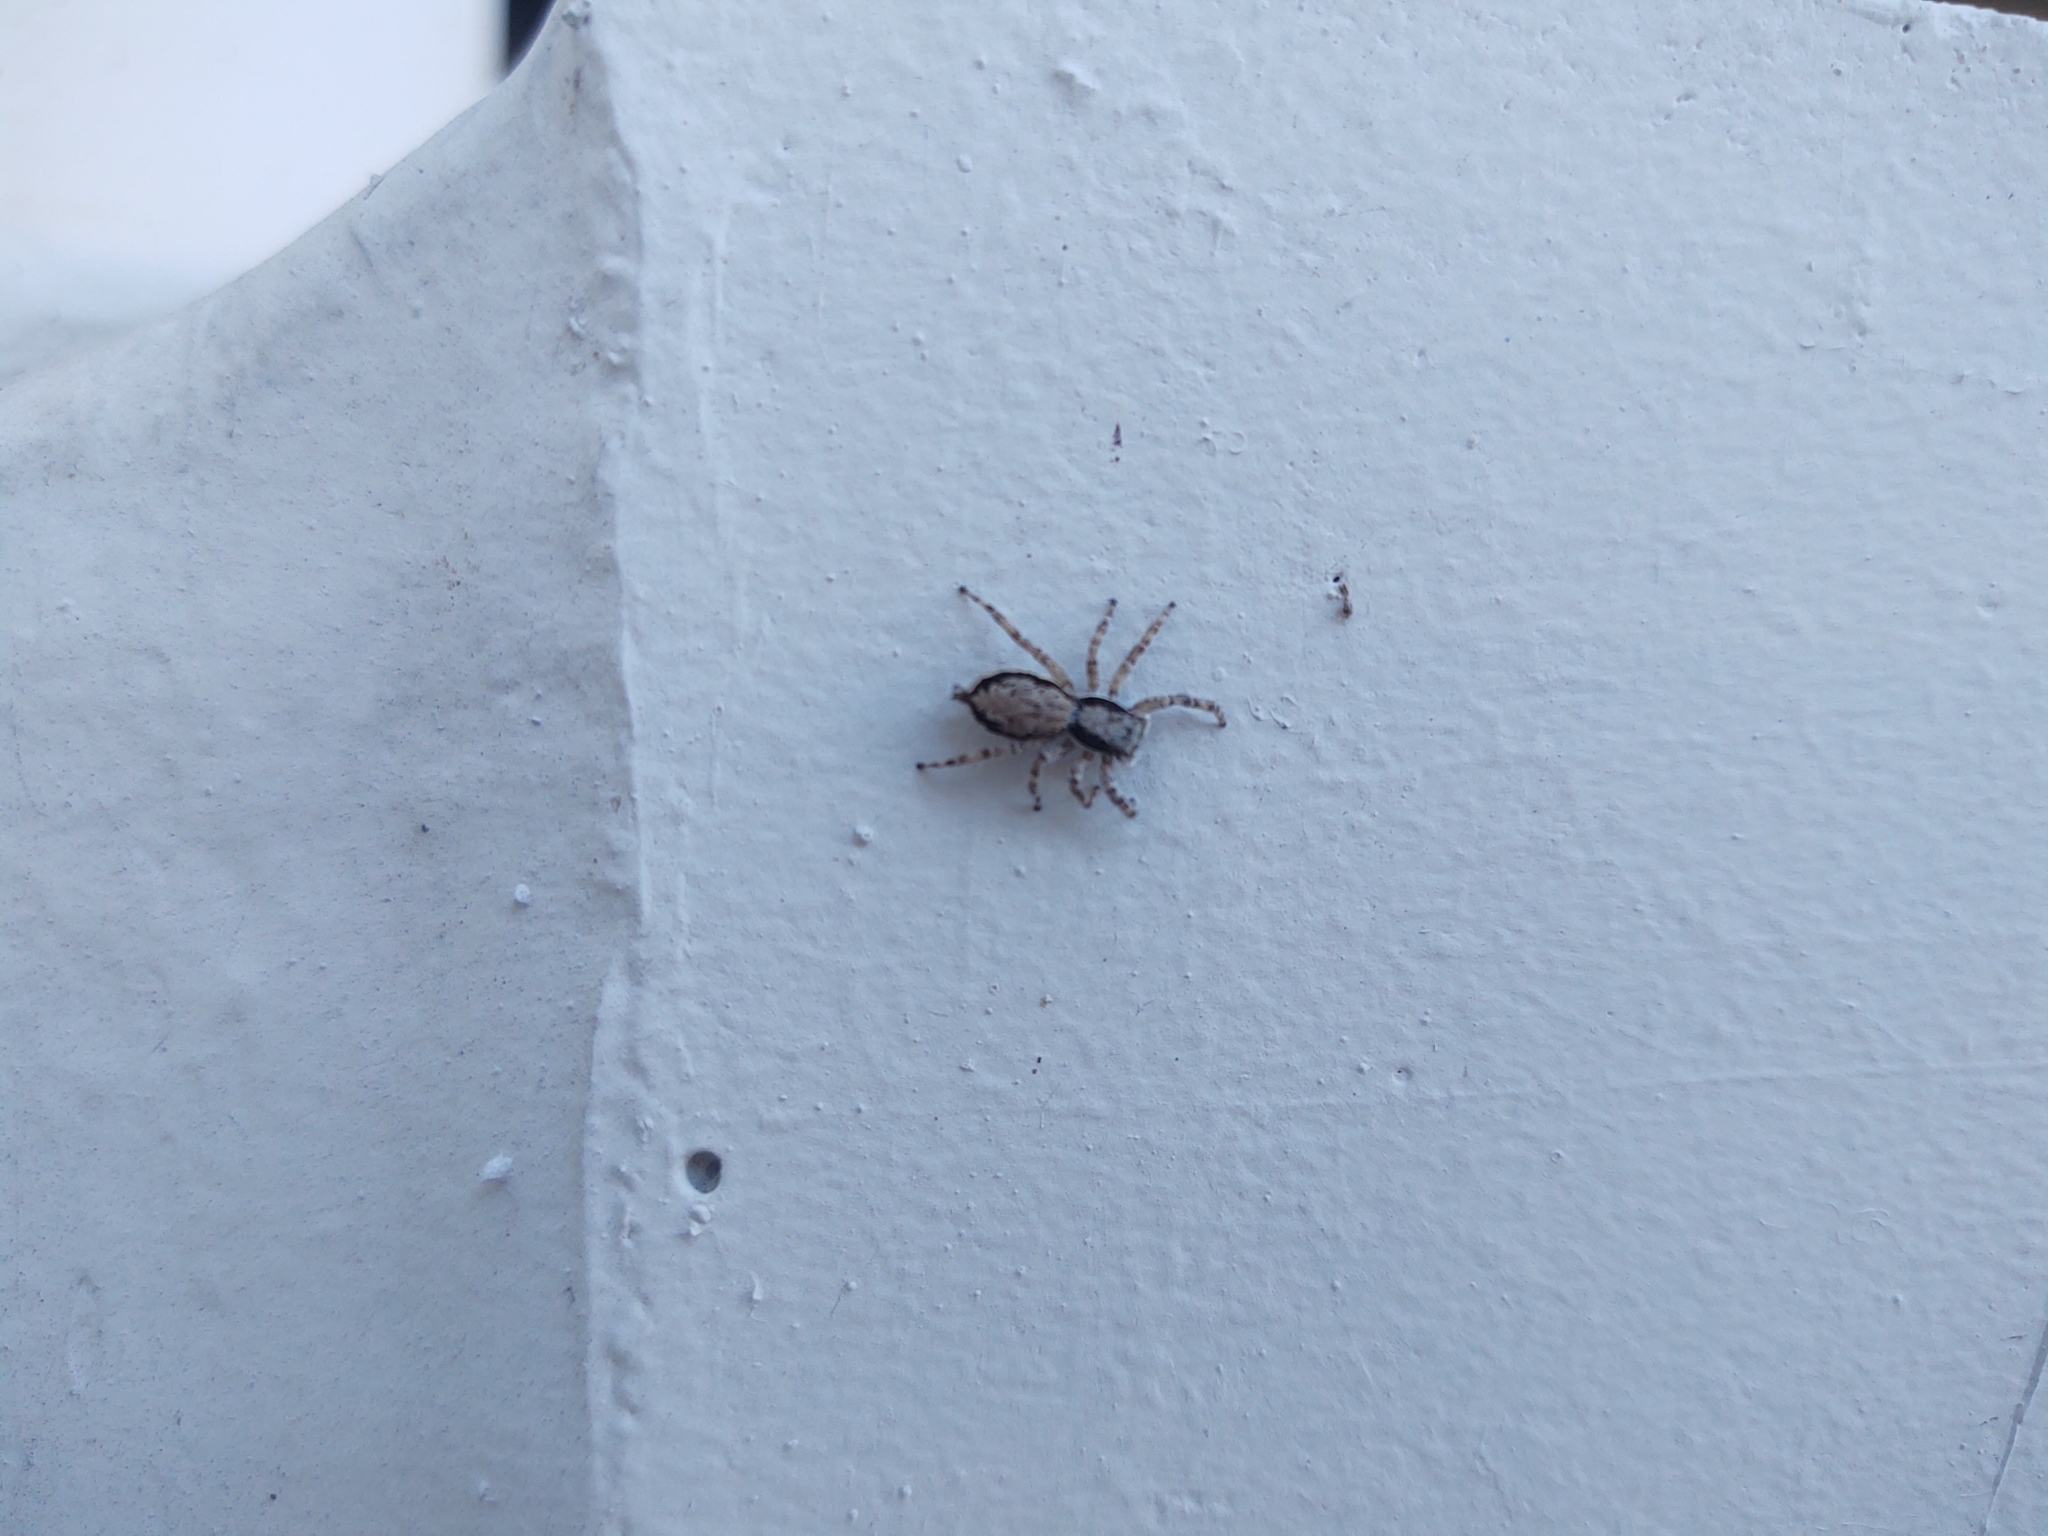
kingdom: Animalia
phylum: Arthropoda
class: Arachnida
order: Araneae
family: Salticidae
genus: Menemerus
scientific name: Menemerus bivittatus
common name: Gray wall jumper
